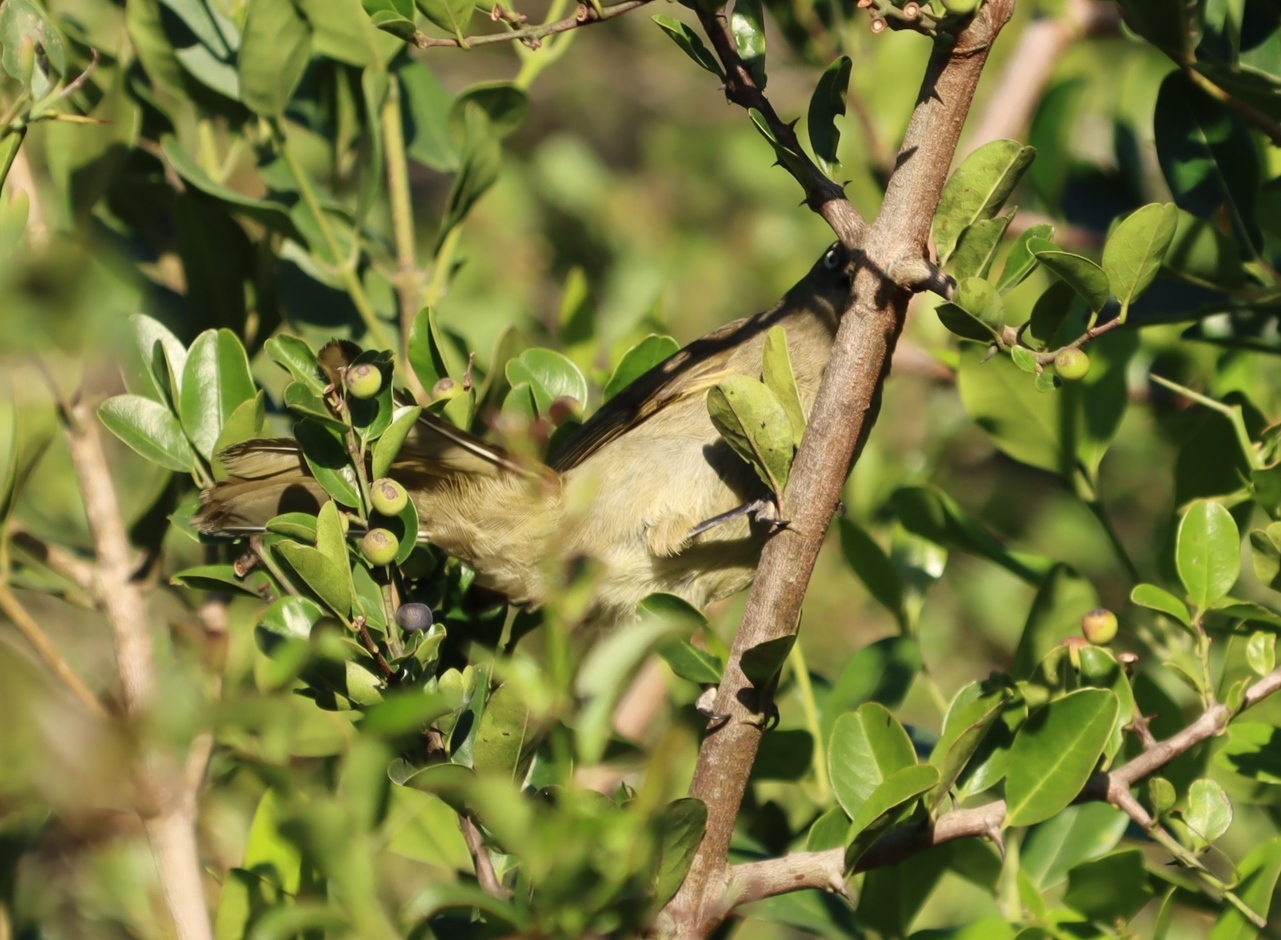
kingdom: Animalia
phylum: Chordata
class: Aves
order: Passeriformes
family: Pycnonotidae
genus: Andropadus
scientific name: Andropadus importunus
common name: Sombre greenbul
